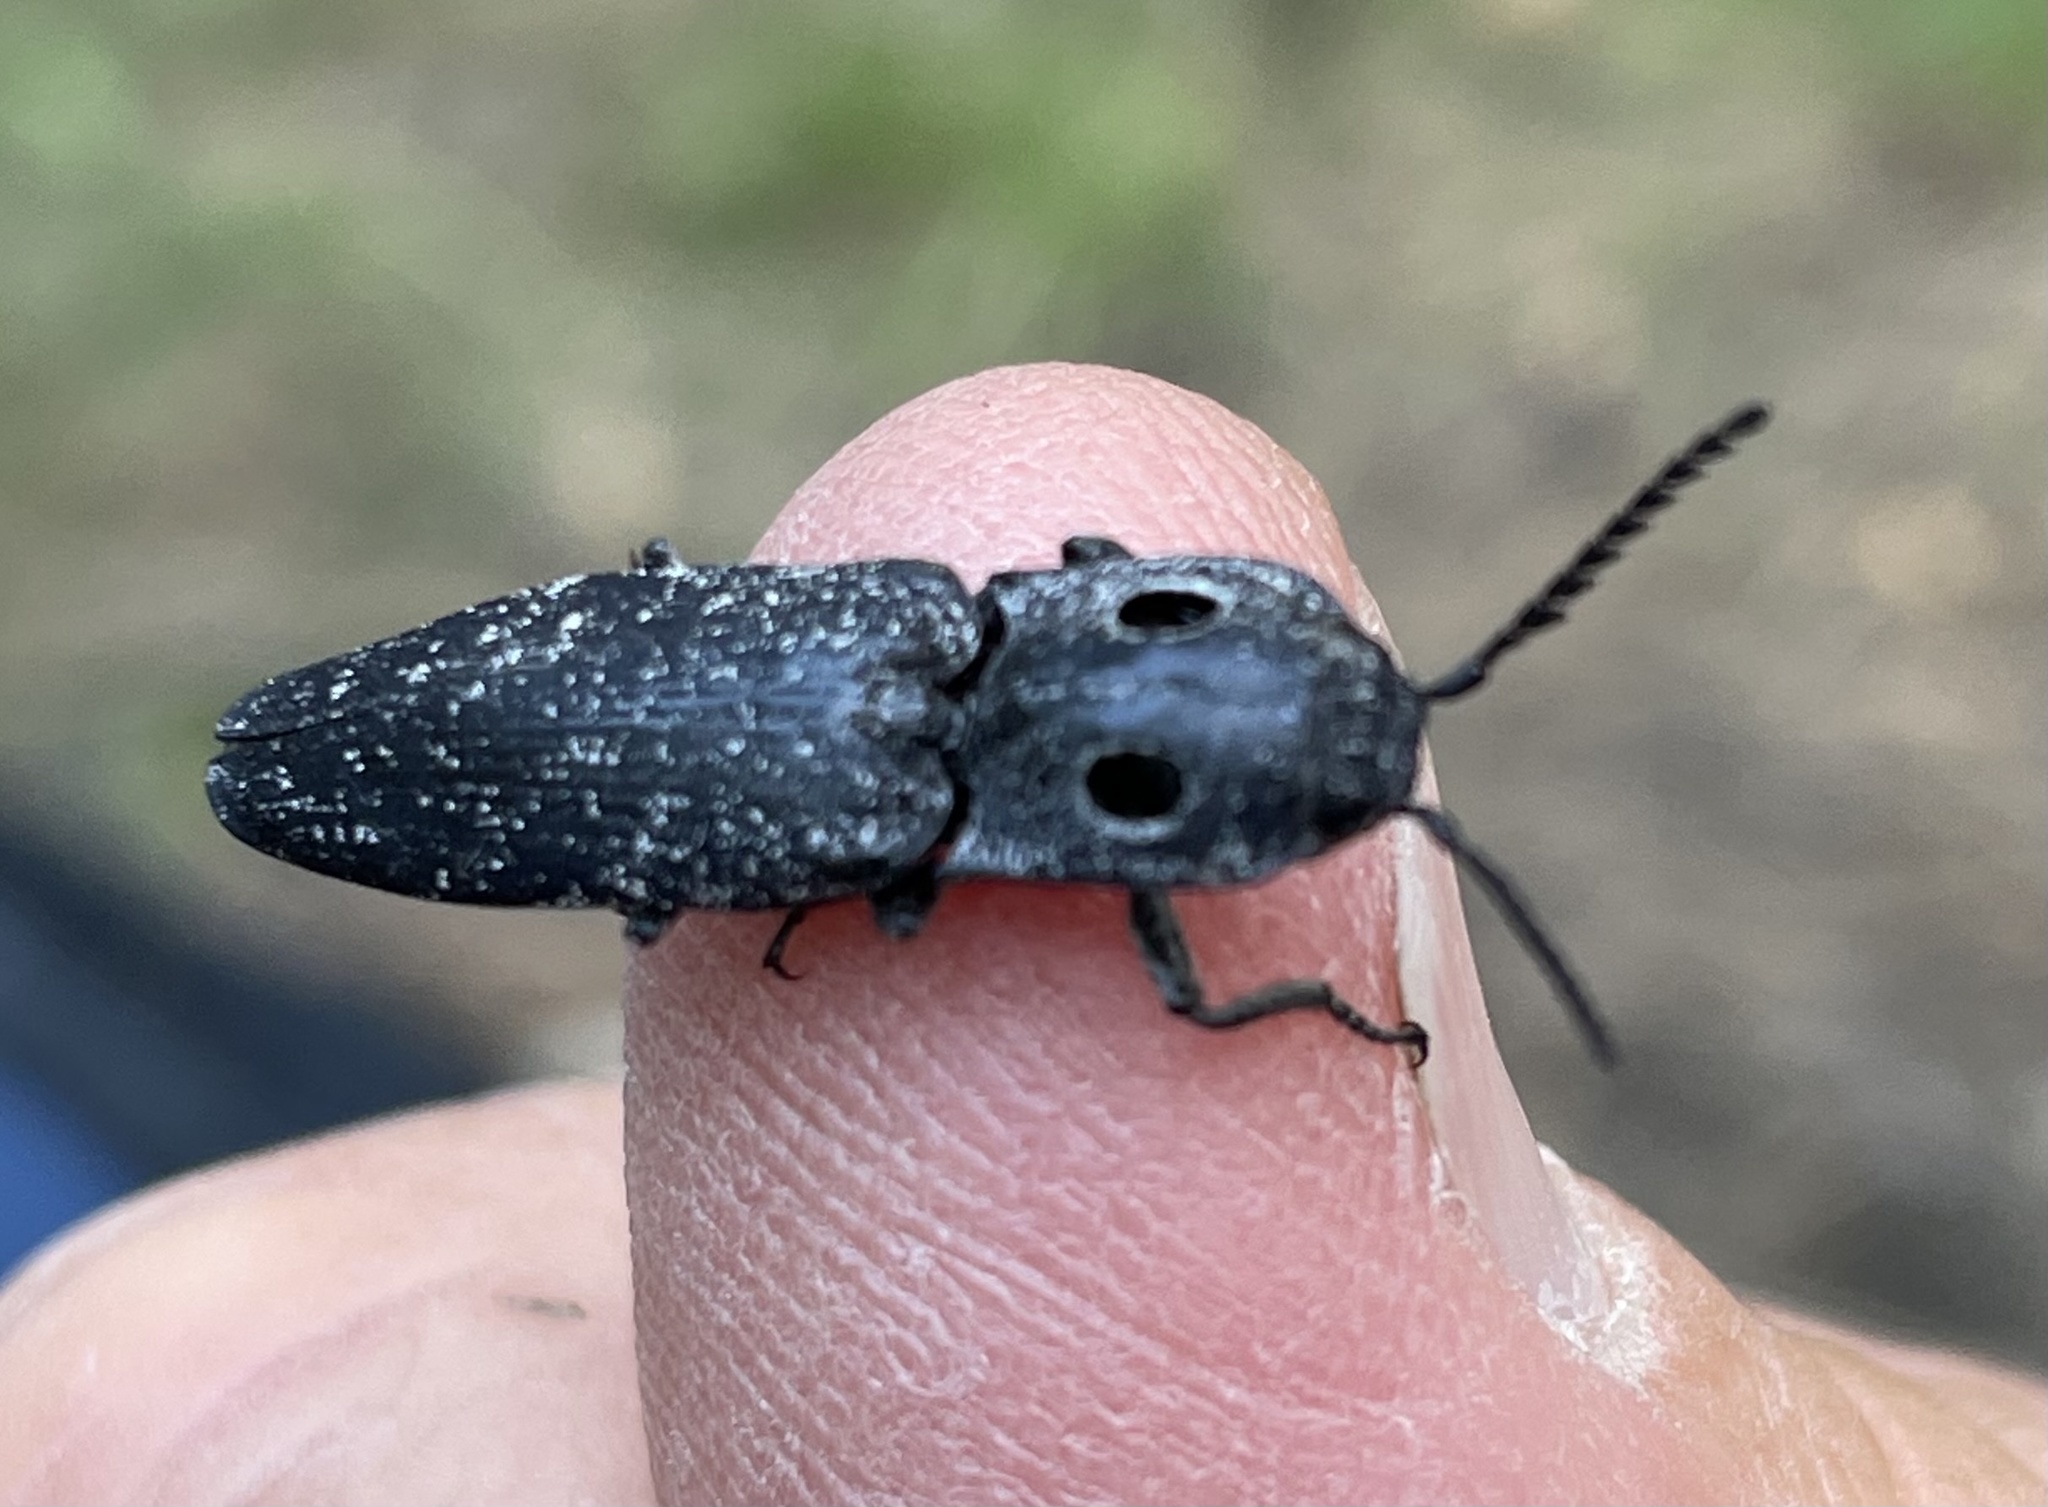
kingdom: Animalia
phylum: Arthropoda
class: Insecta
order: Coleoptera
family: Elateridae
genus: Alaus
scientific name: Alaus melanops
